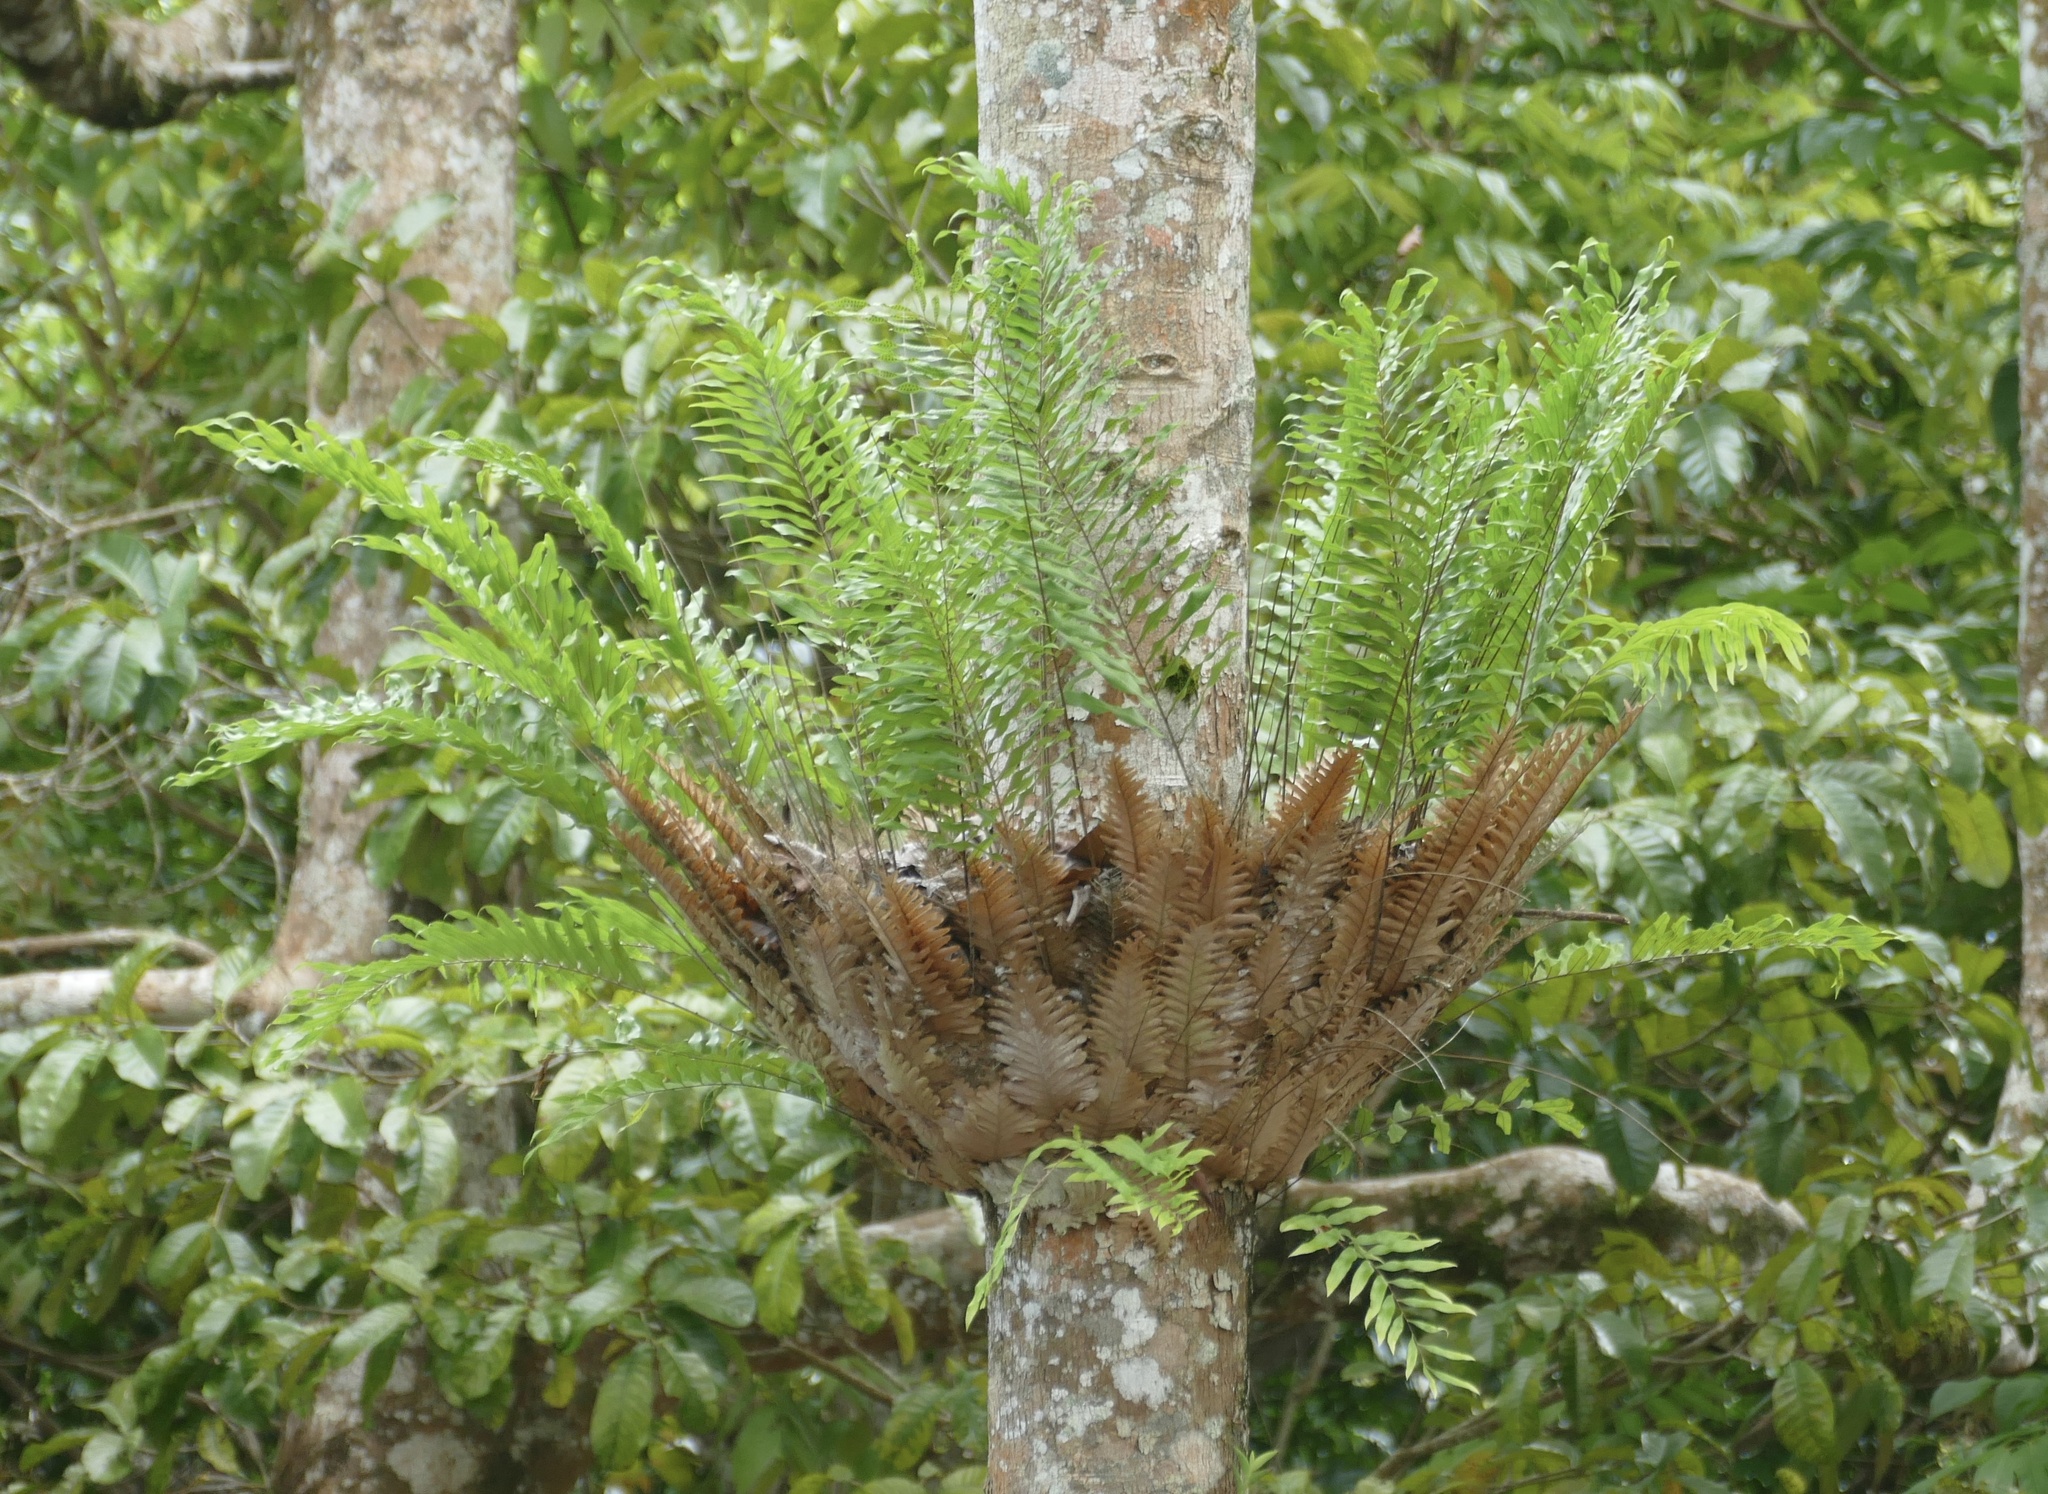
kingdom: Plantae
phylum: Tracheophyta
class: Polypodiopsida
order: Polypodiales
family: Polypodiaceae
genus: Drynaria
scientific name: Drynaria rigidula
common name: Basket fern
